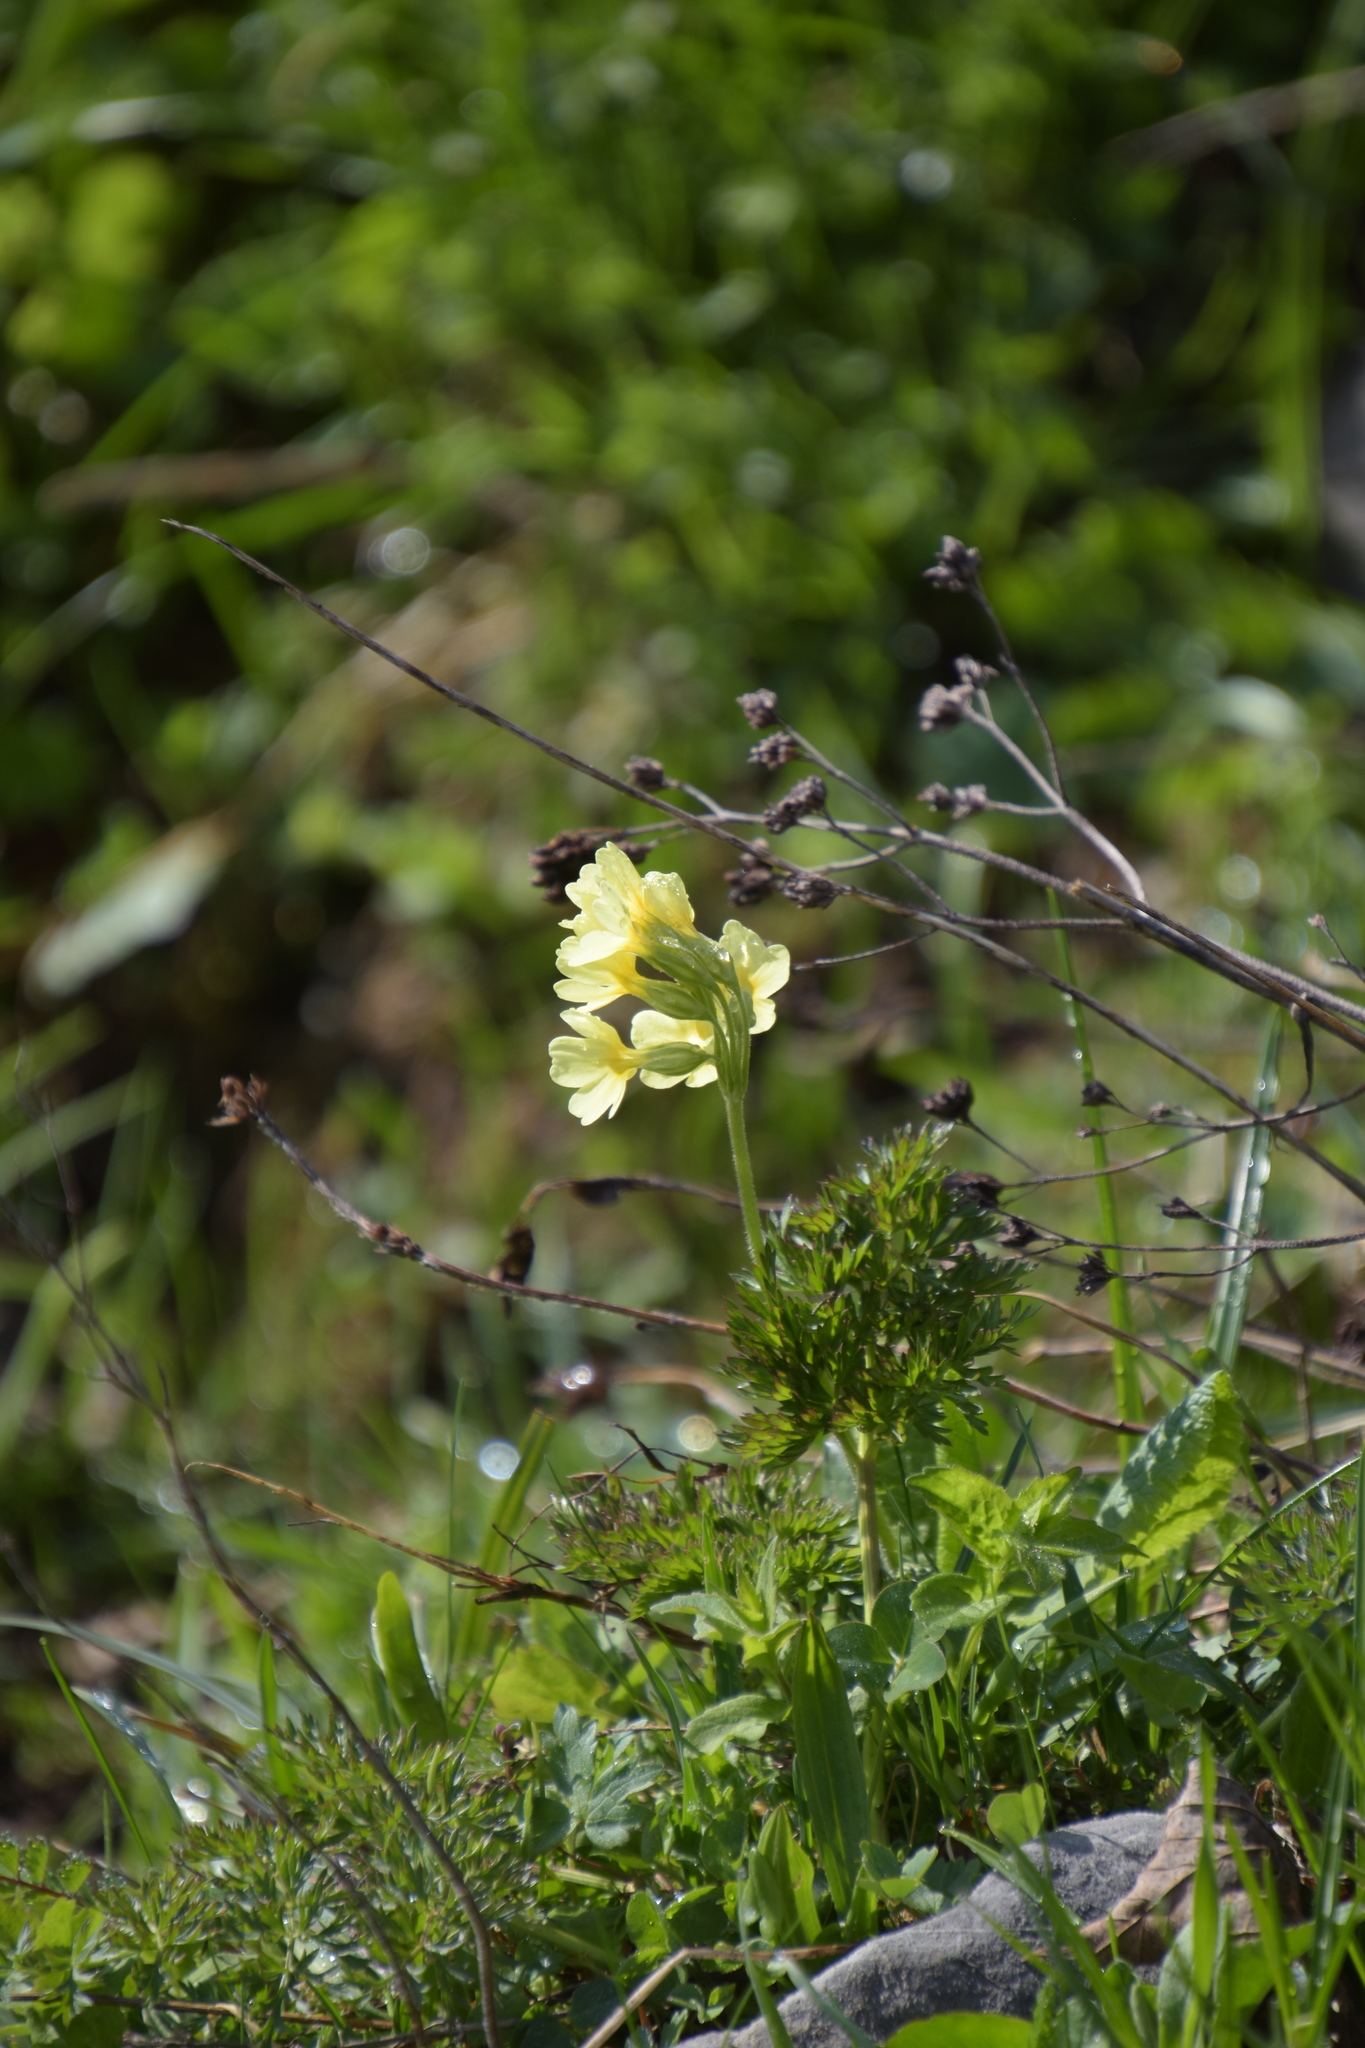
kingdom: Plantae
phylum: Tracheophyta
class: Magnoliopsida
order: Ericales
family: Primulaceae
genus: Primula
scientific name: Primula elatior
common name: Oxlip
